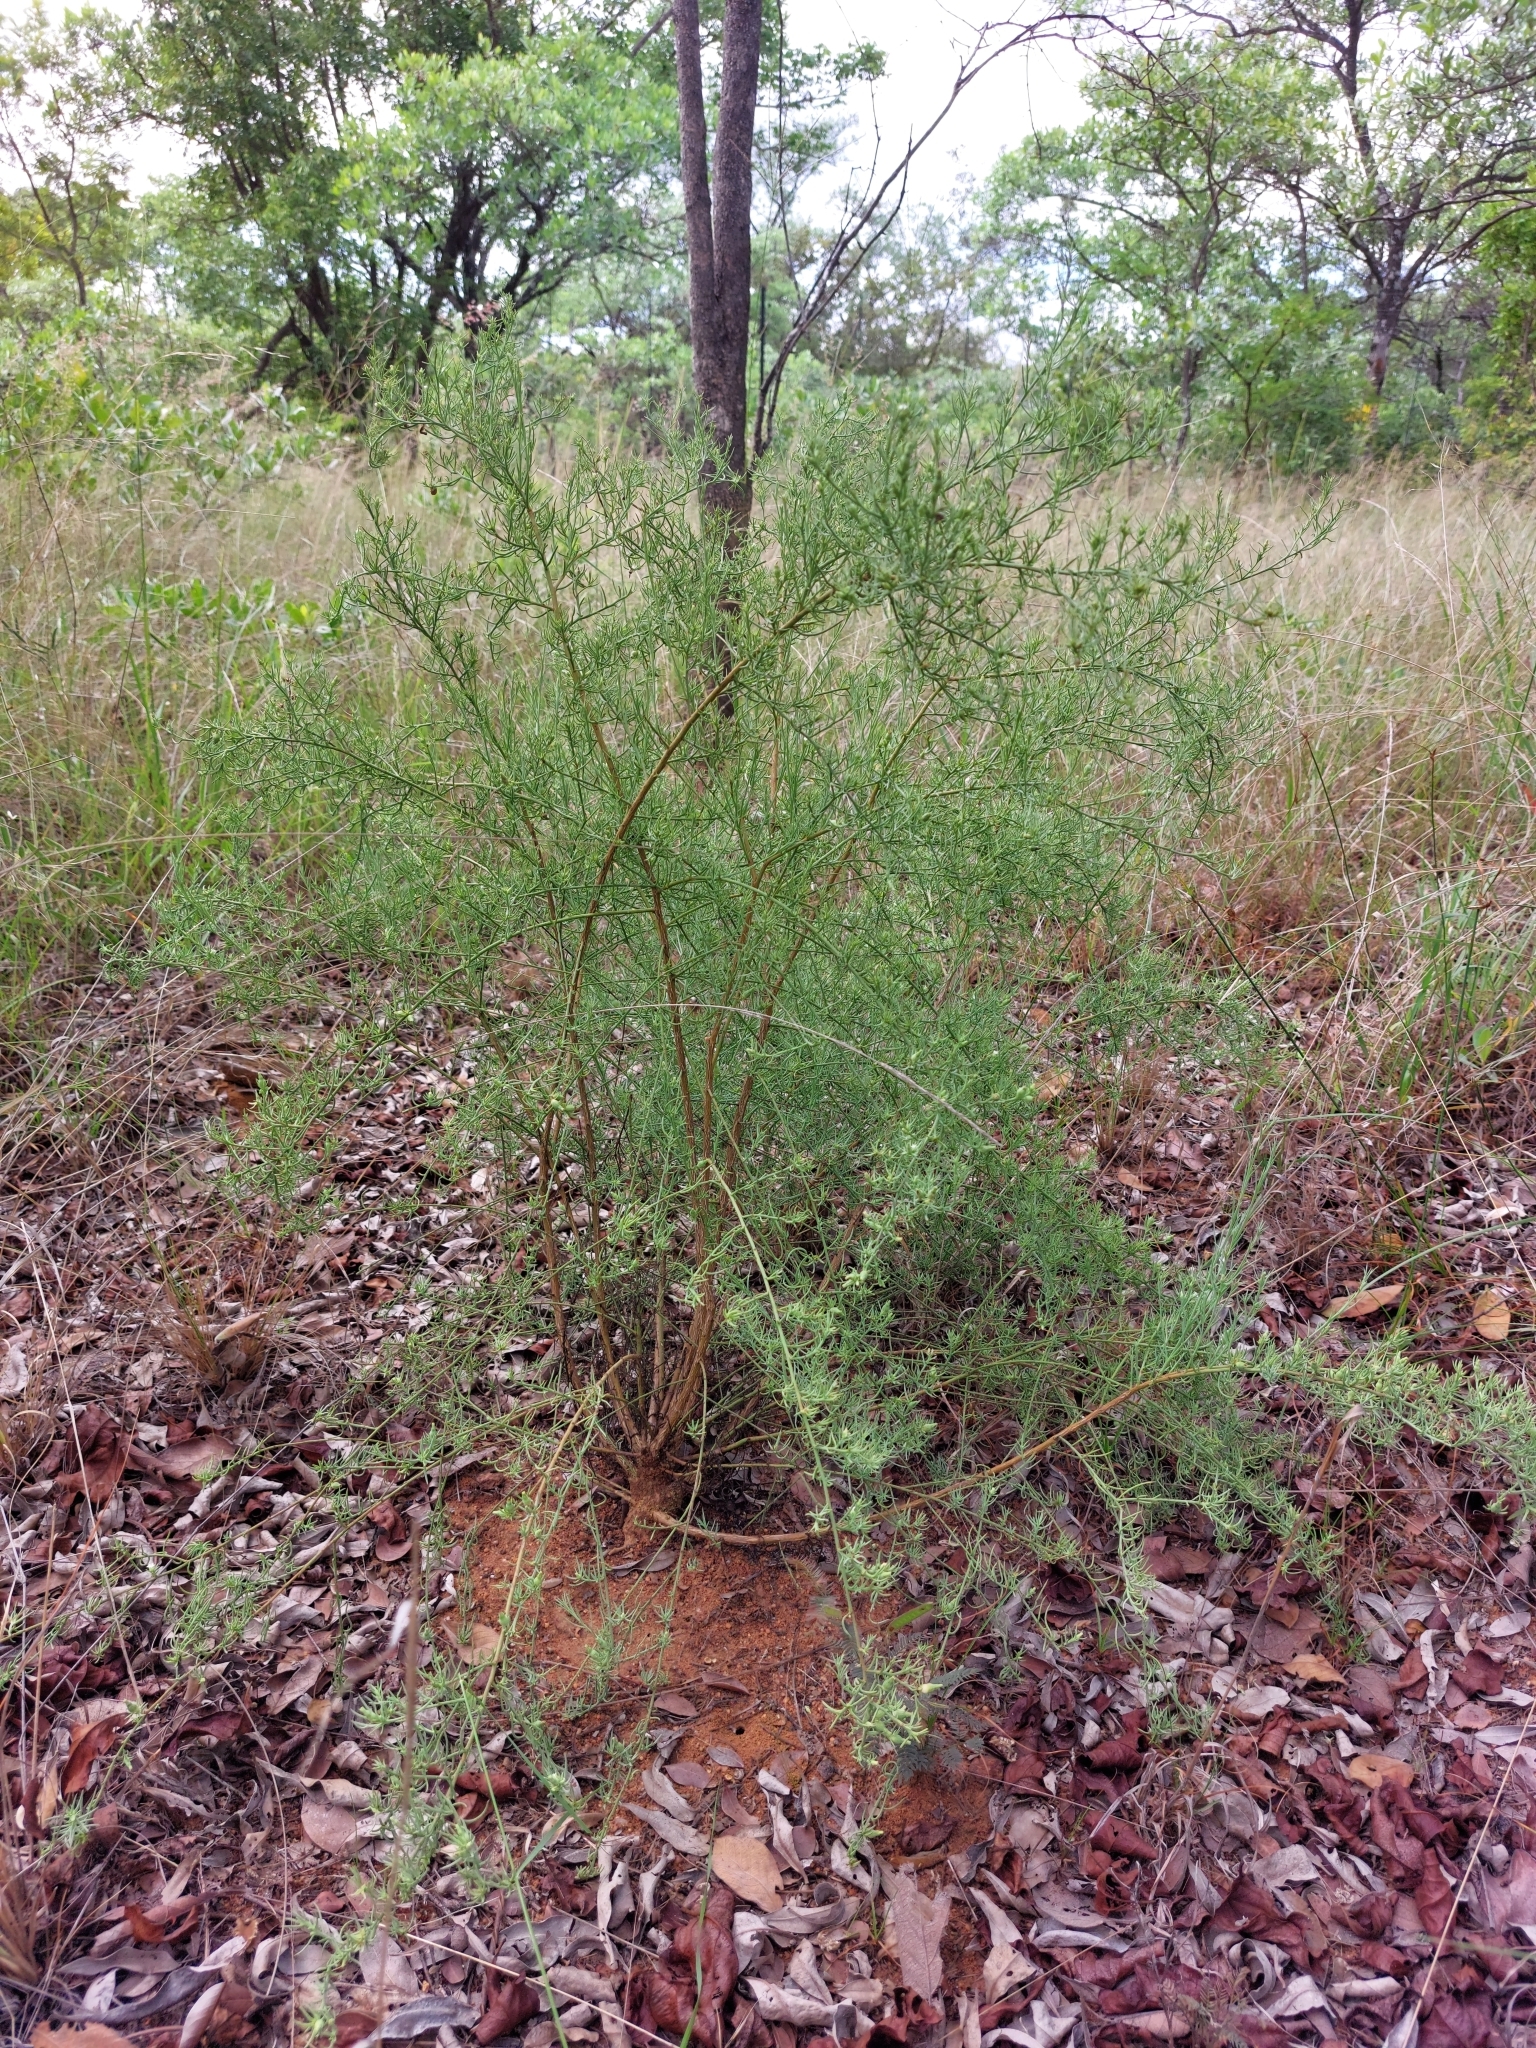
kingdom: Plantae
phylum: Tracheophyta
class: Magnoliopsida
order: Santalales
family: Thesiaceae
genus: Thesium
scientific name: Thesium celatum
